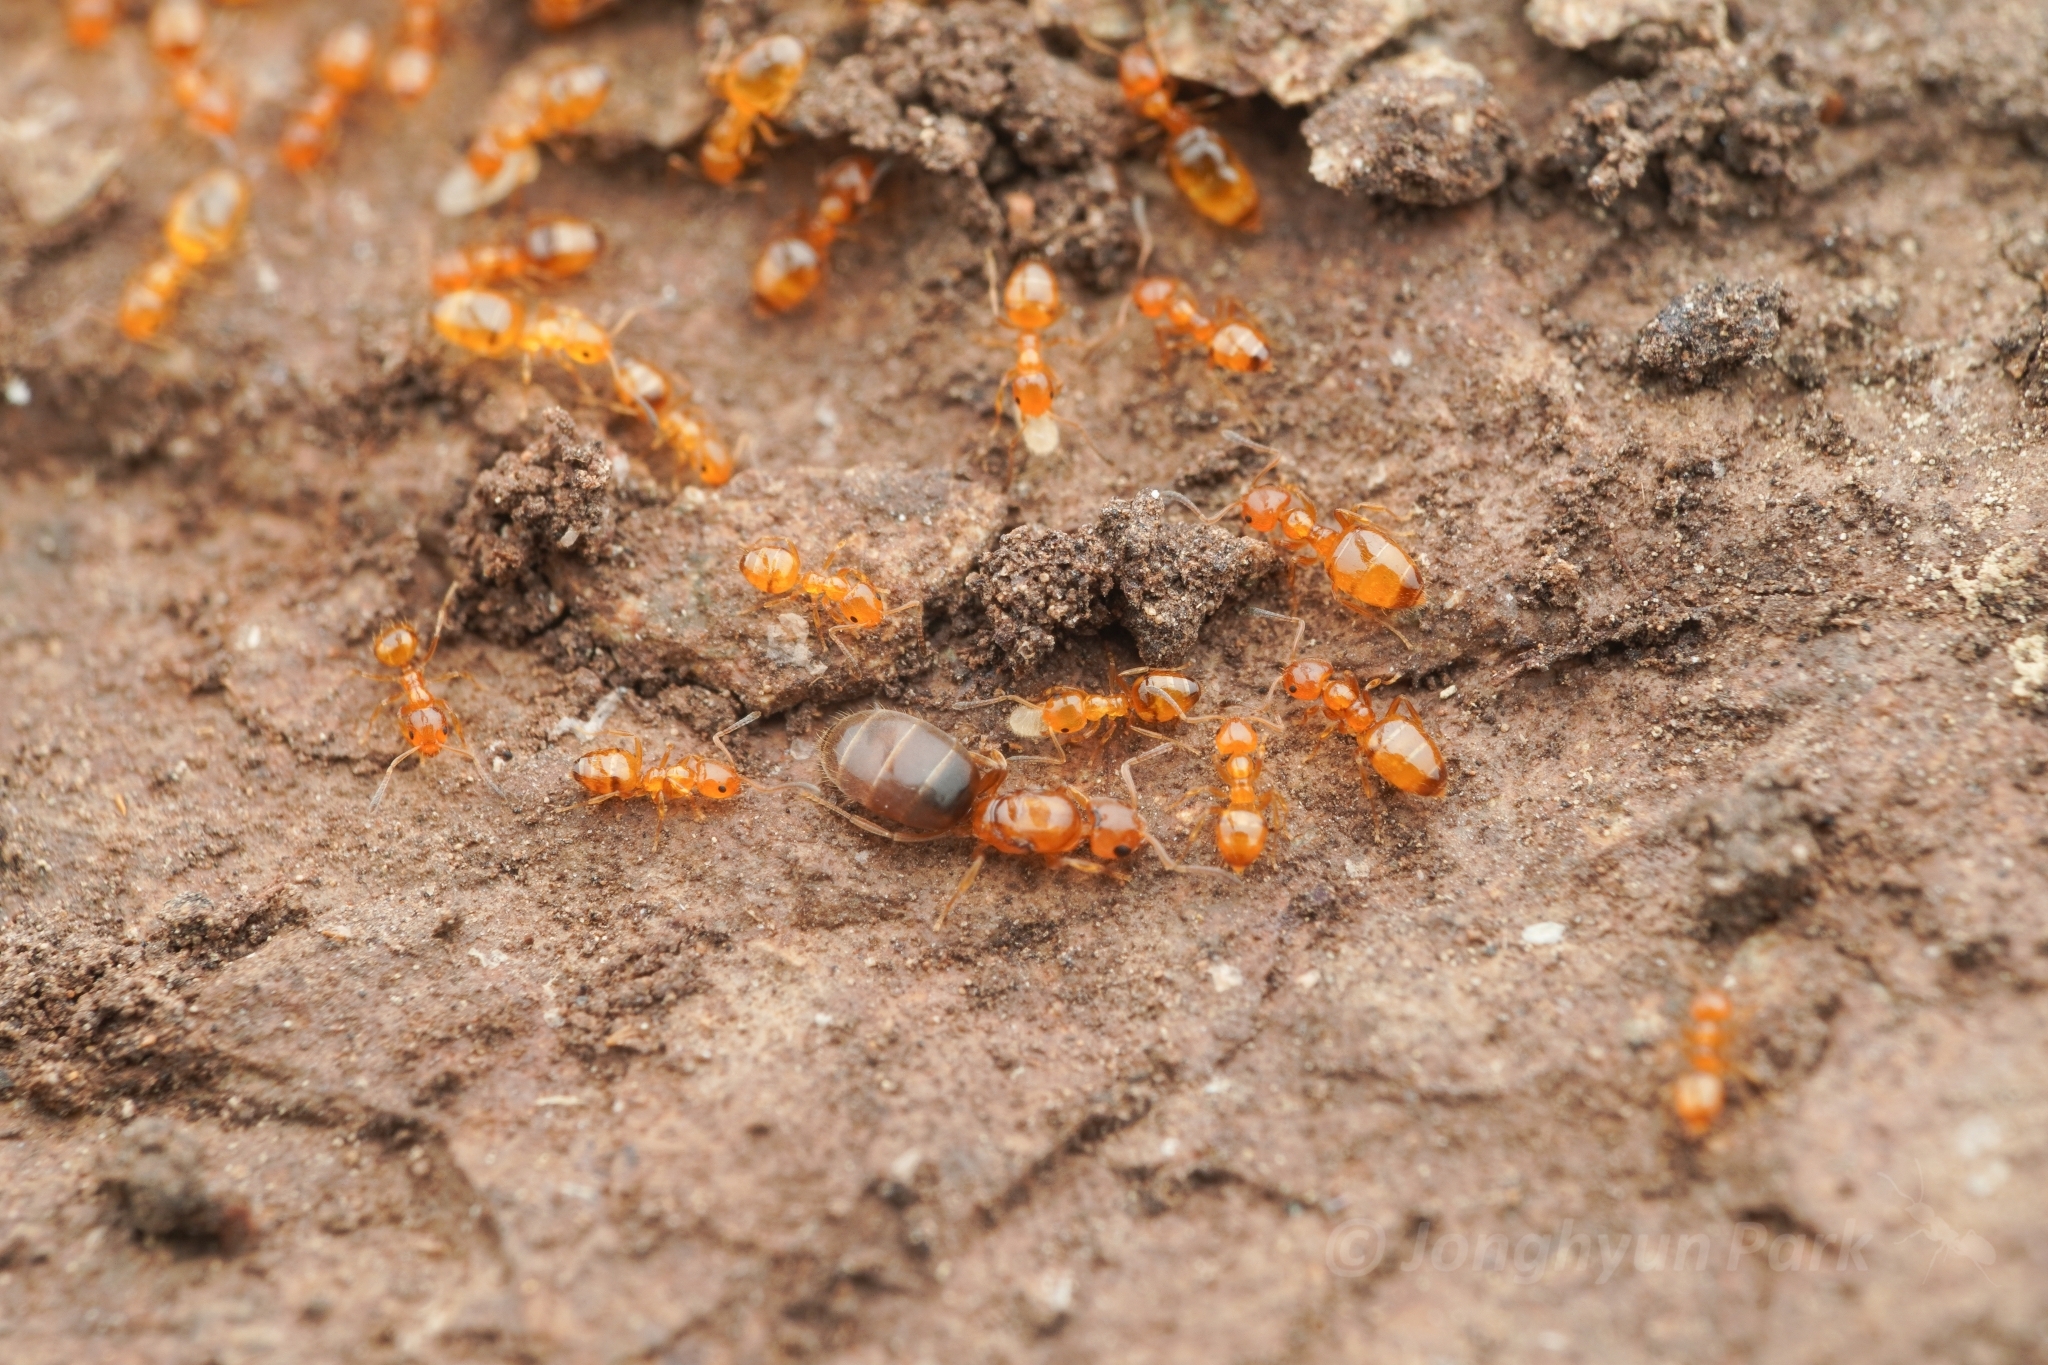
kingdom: Animalia
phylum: Arthropoda
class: Insecta
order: Hymenoptera
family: Formicidae
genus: Plagiolepis
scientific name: Plagiolepis flavescens
